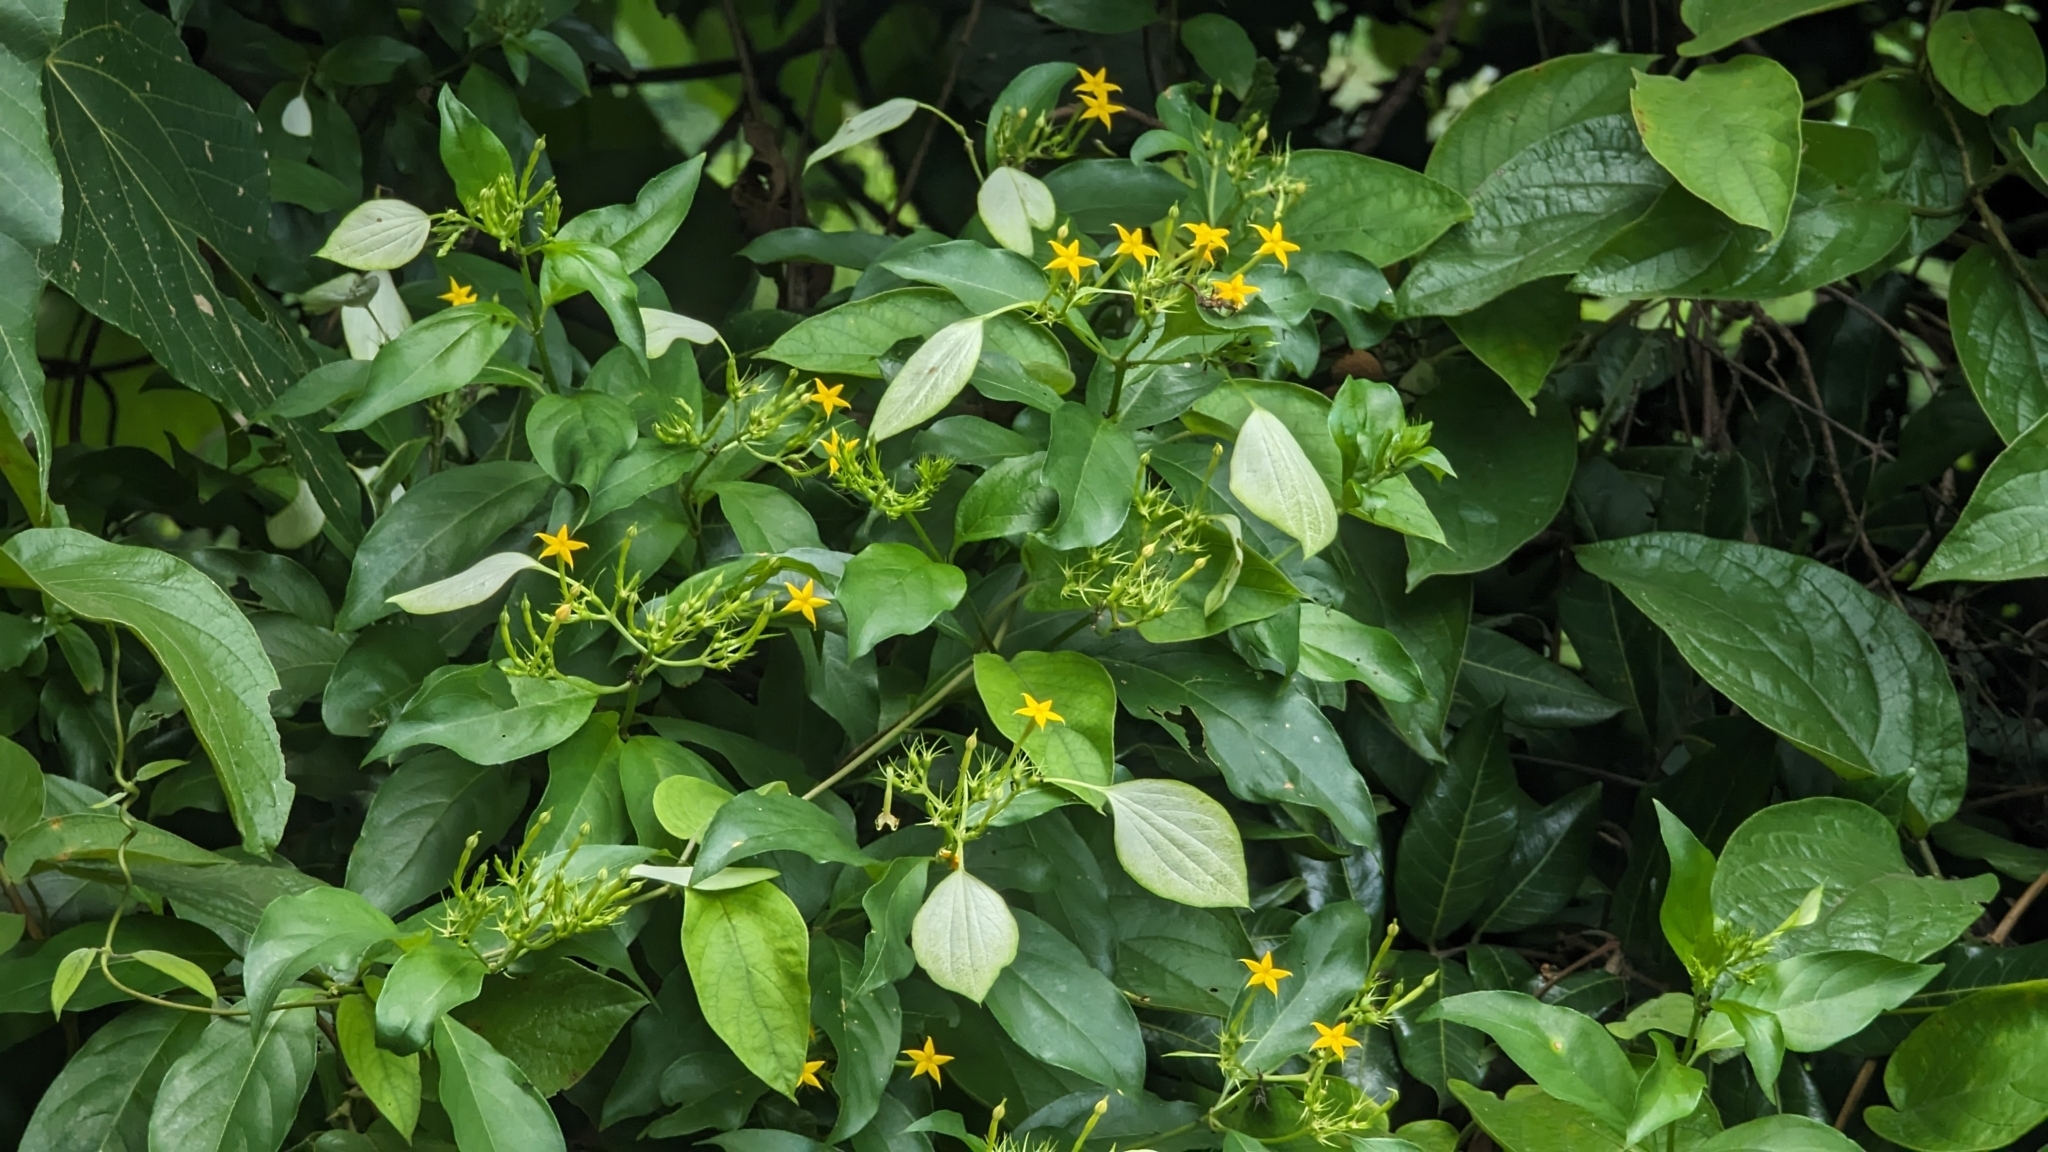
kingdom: Plantae
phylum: Tracheophyta
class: Magnoliopsida
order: Gentianales
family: Rubiaceae
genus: Mussaenda
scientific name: Mussaenda formosana
